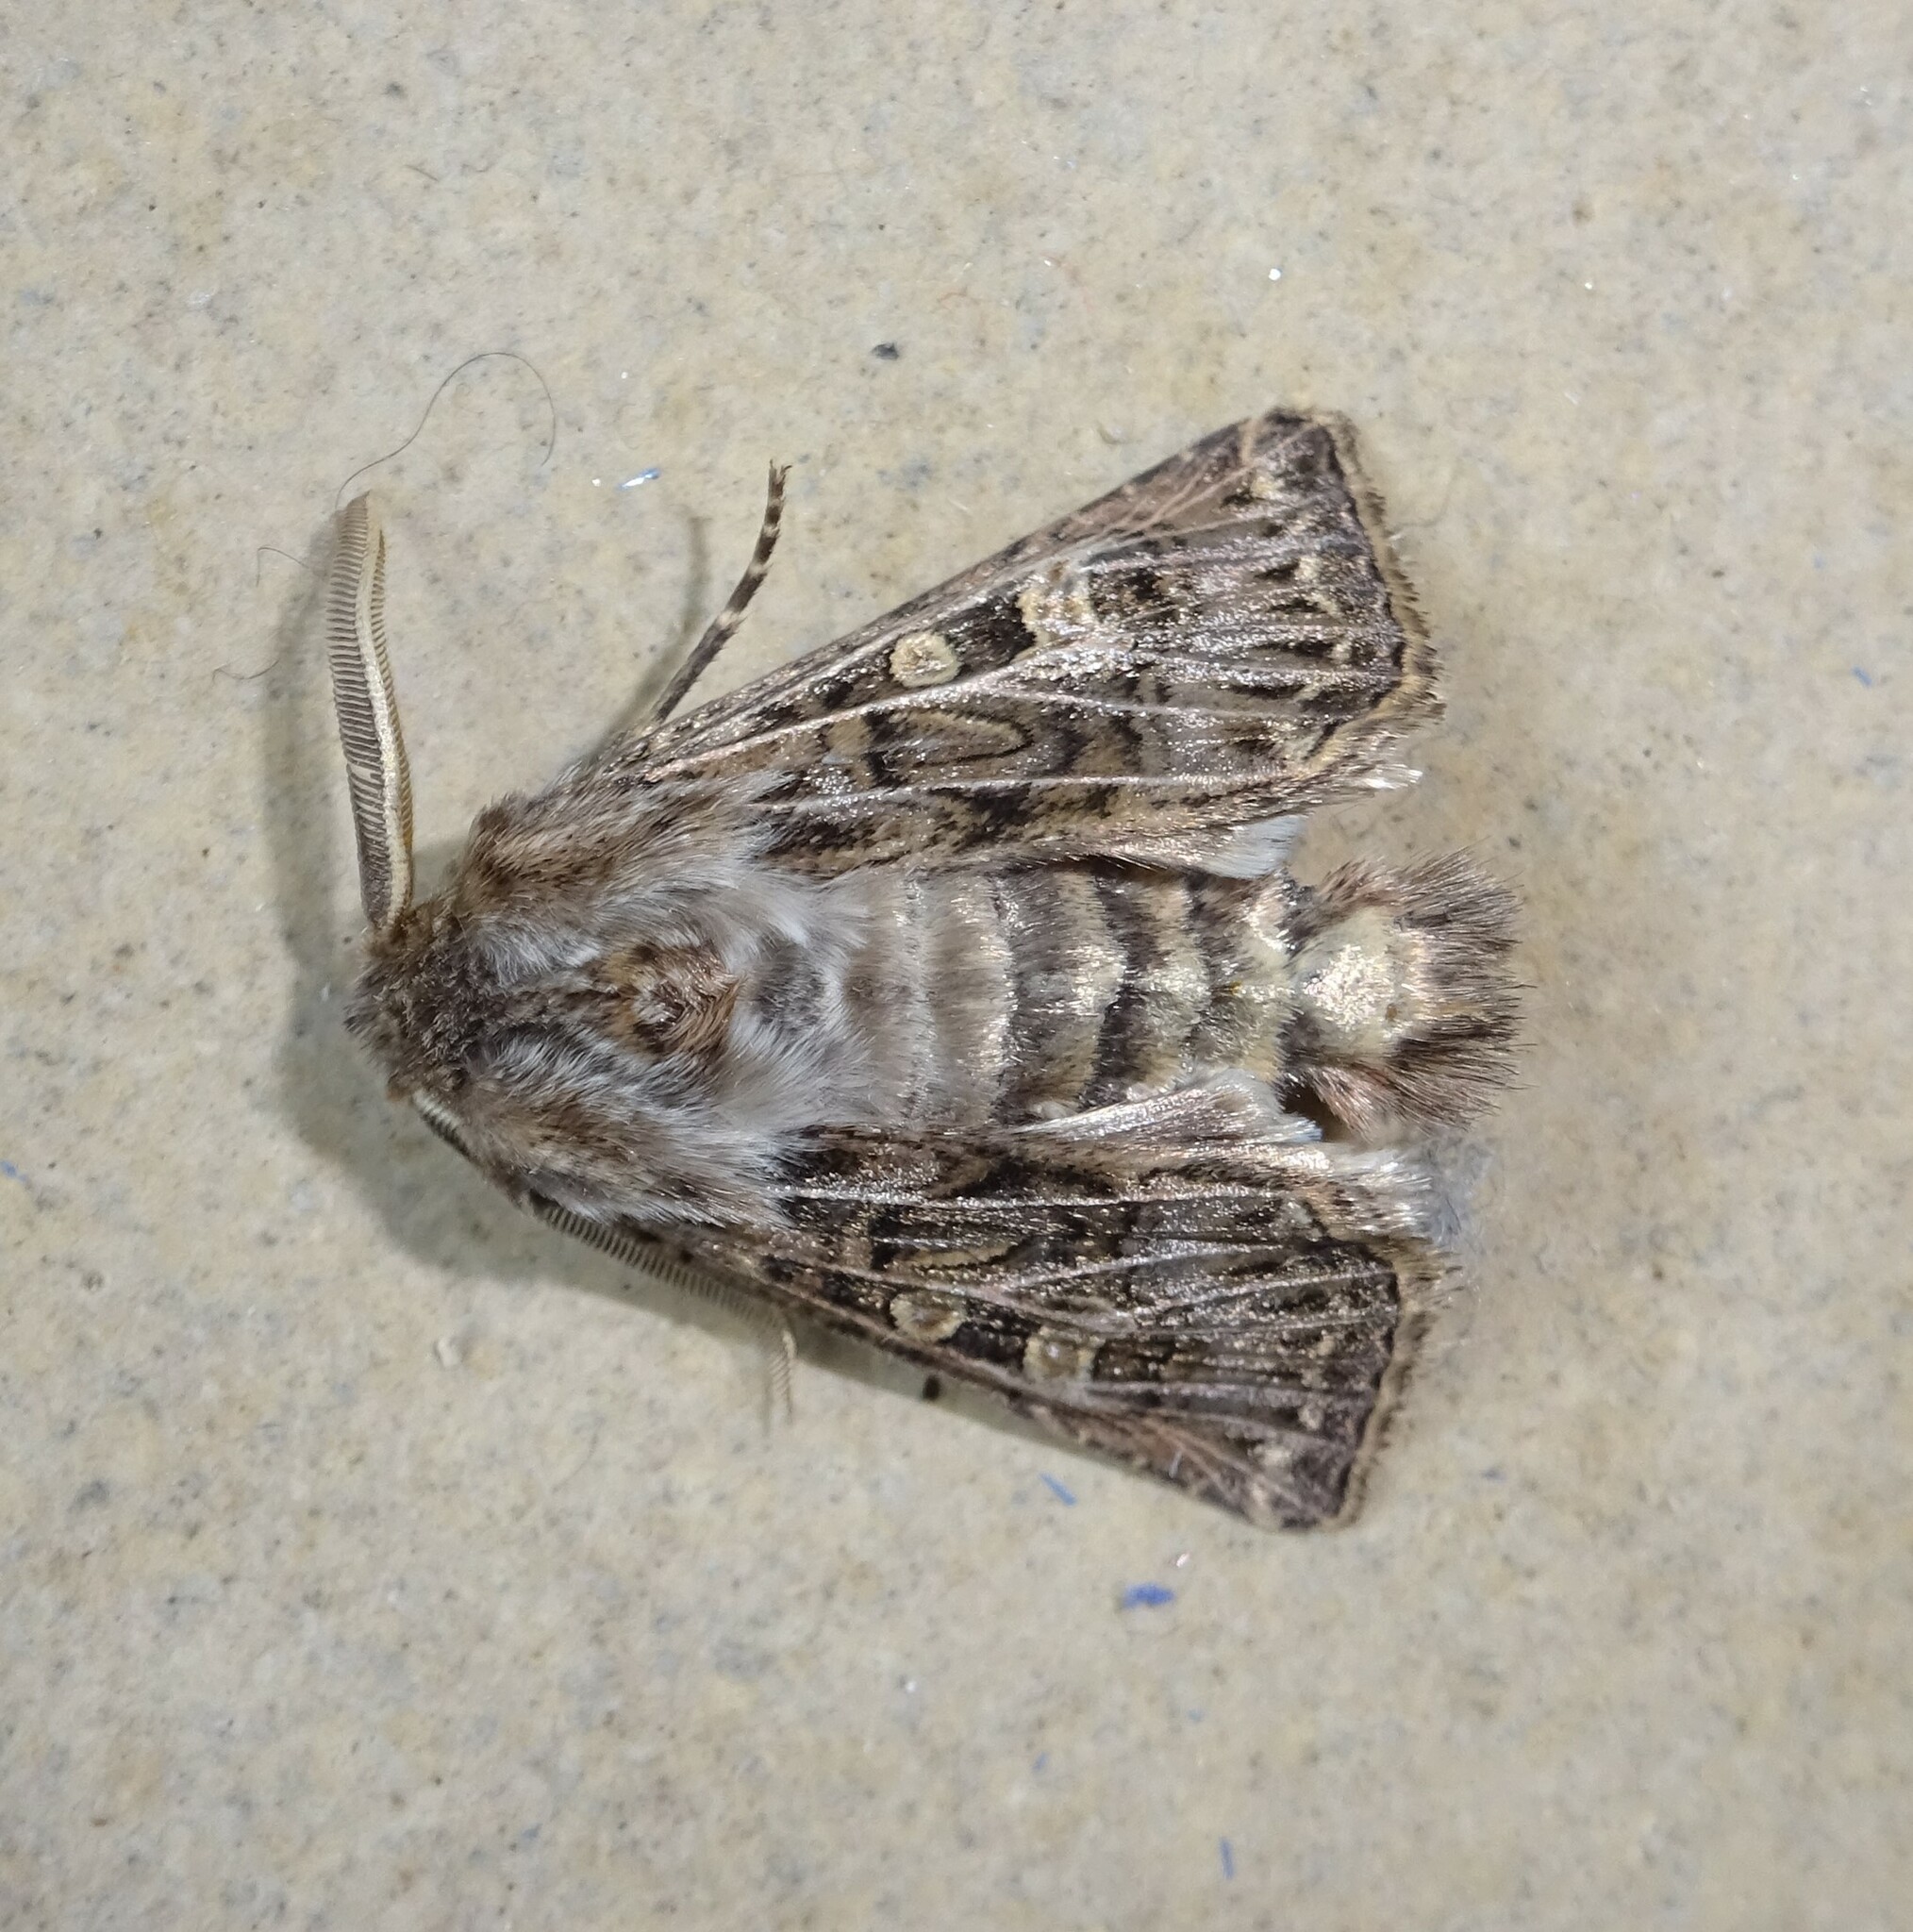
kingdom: Animalia
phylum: Arthropoda
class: Insecta
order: Lepidoptera
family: Noctuidae
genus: Tholera
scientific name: Tholera decimalis
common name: Feathered gothic
